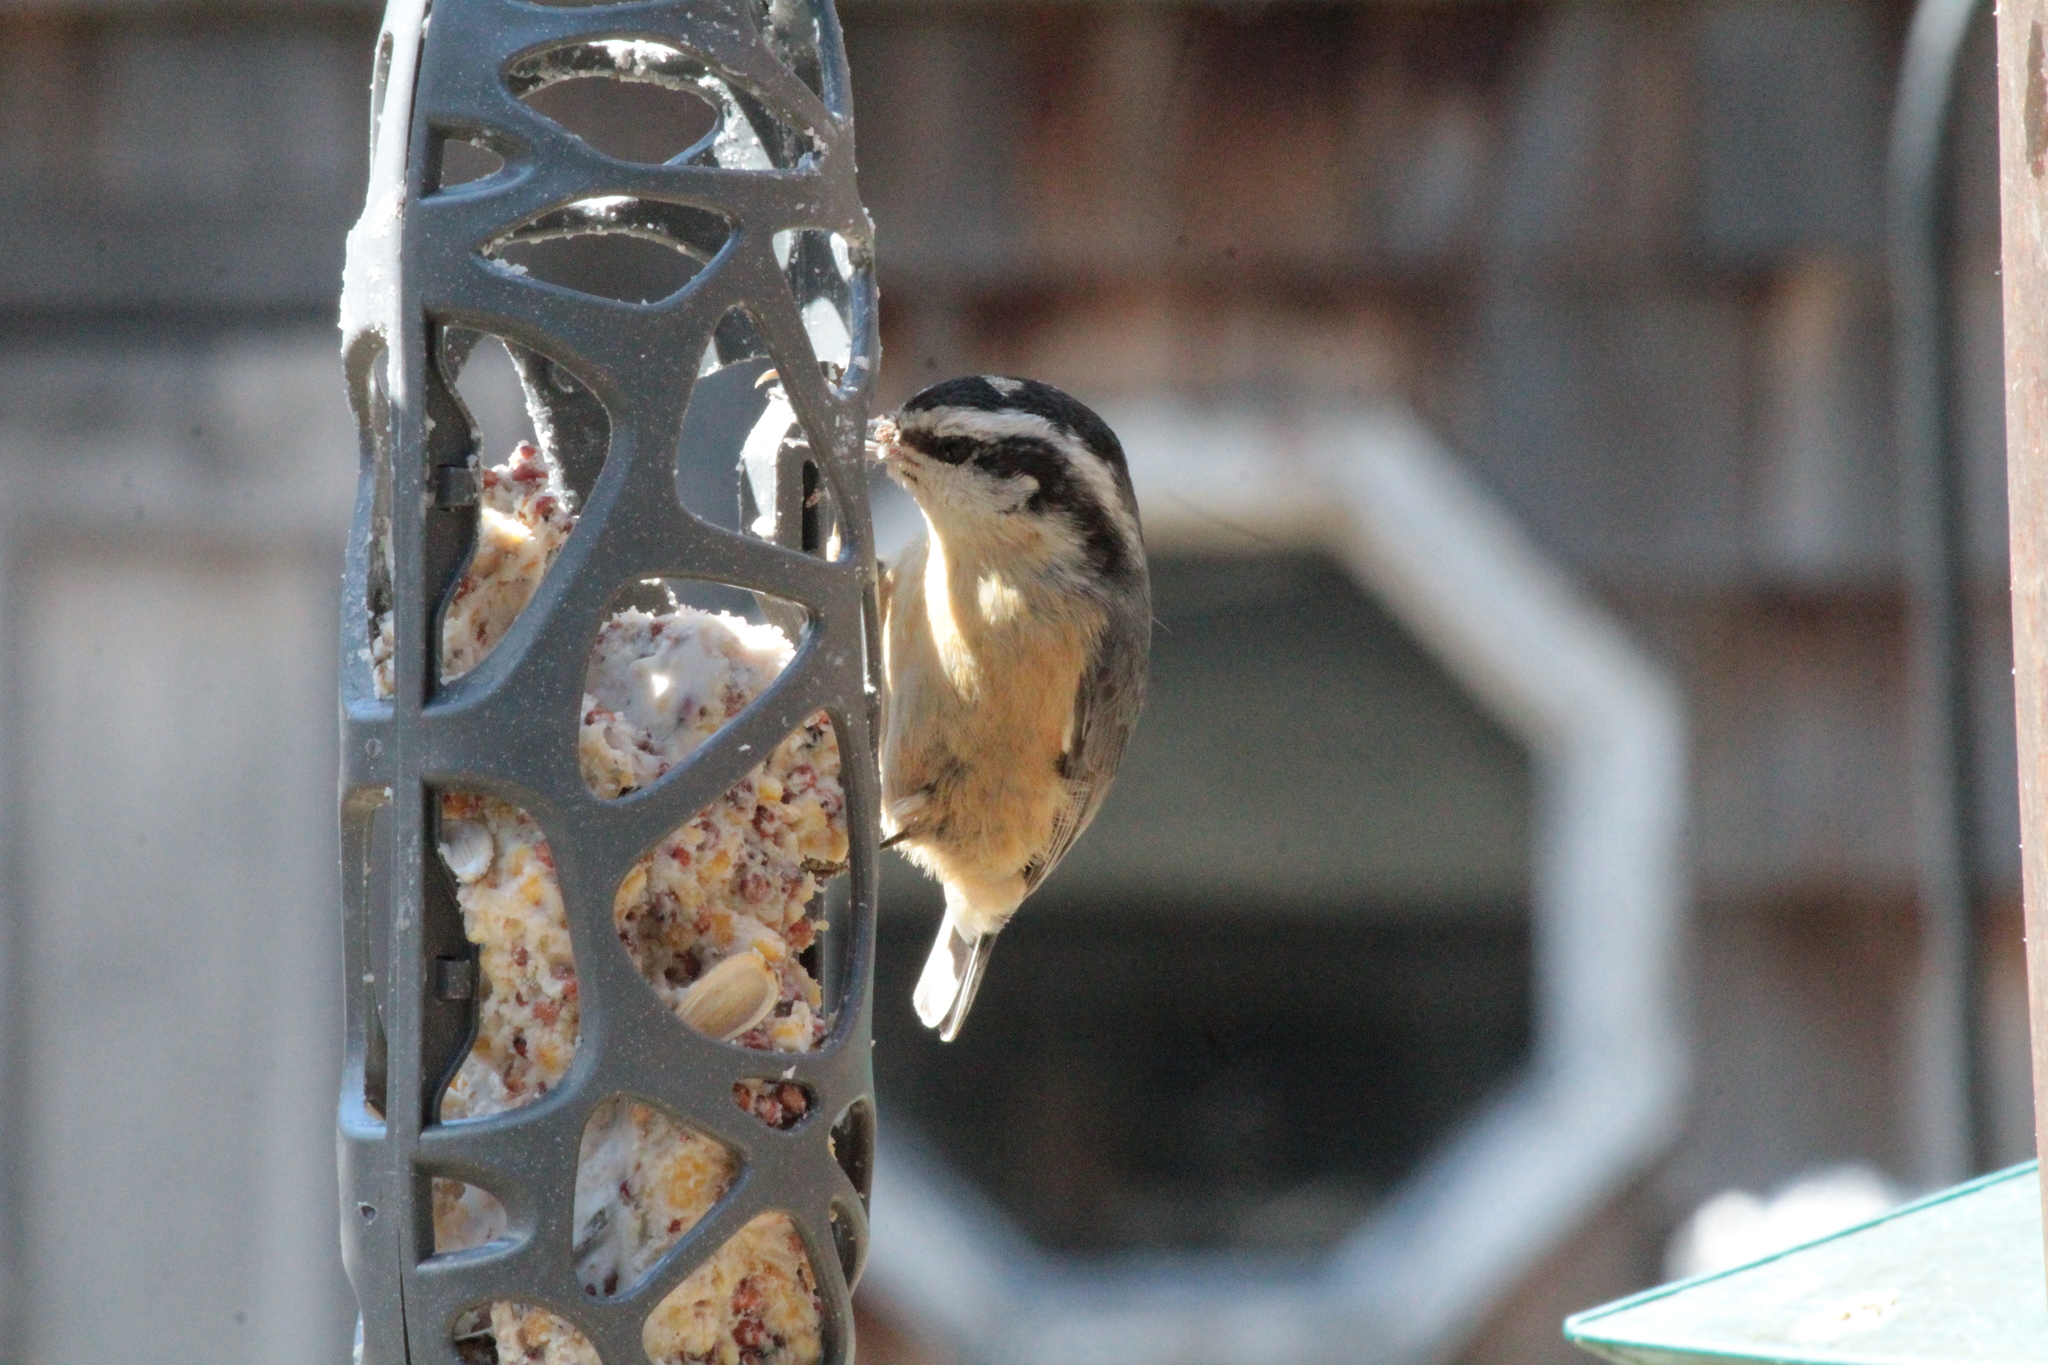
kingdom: Animalia
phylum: Chordata
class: Aves
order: Passeriformes
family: Sittidae
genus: Sitta
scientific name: Sitta canadensis
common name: Red-breasted nuthatch
